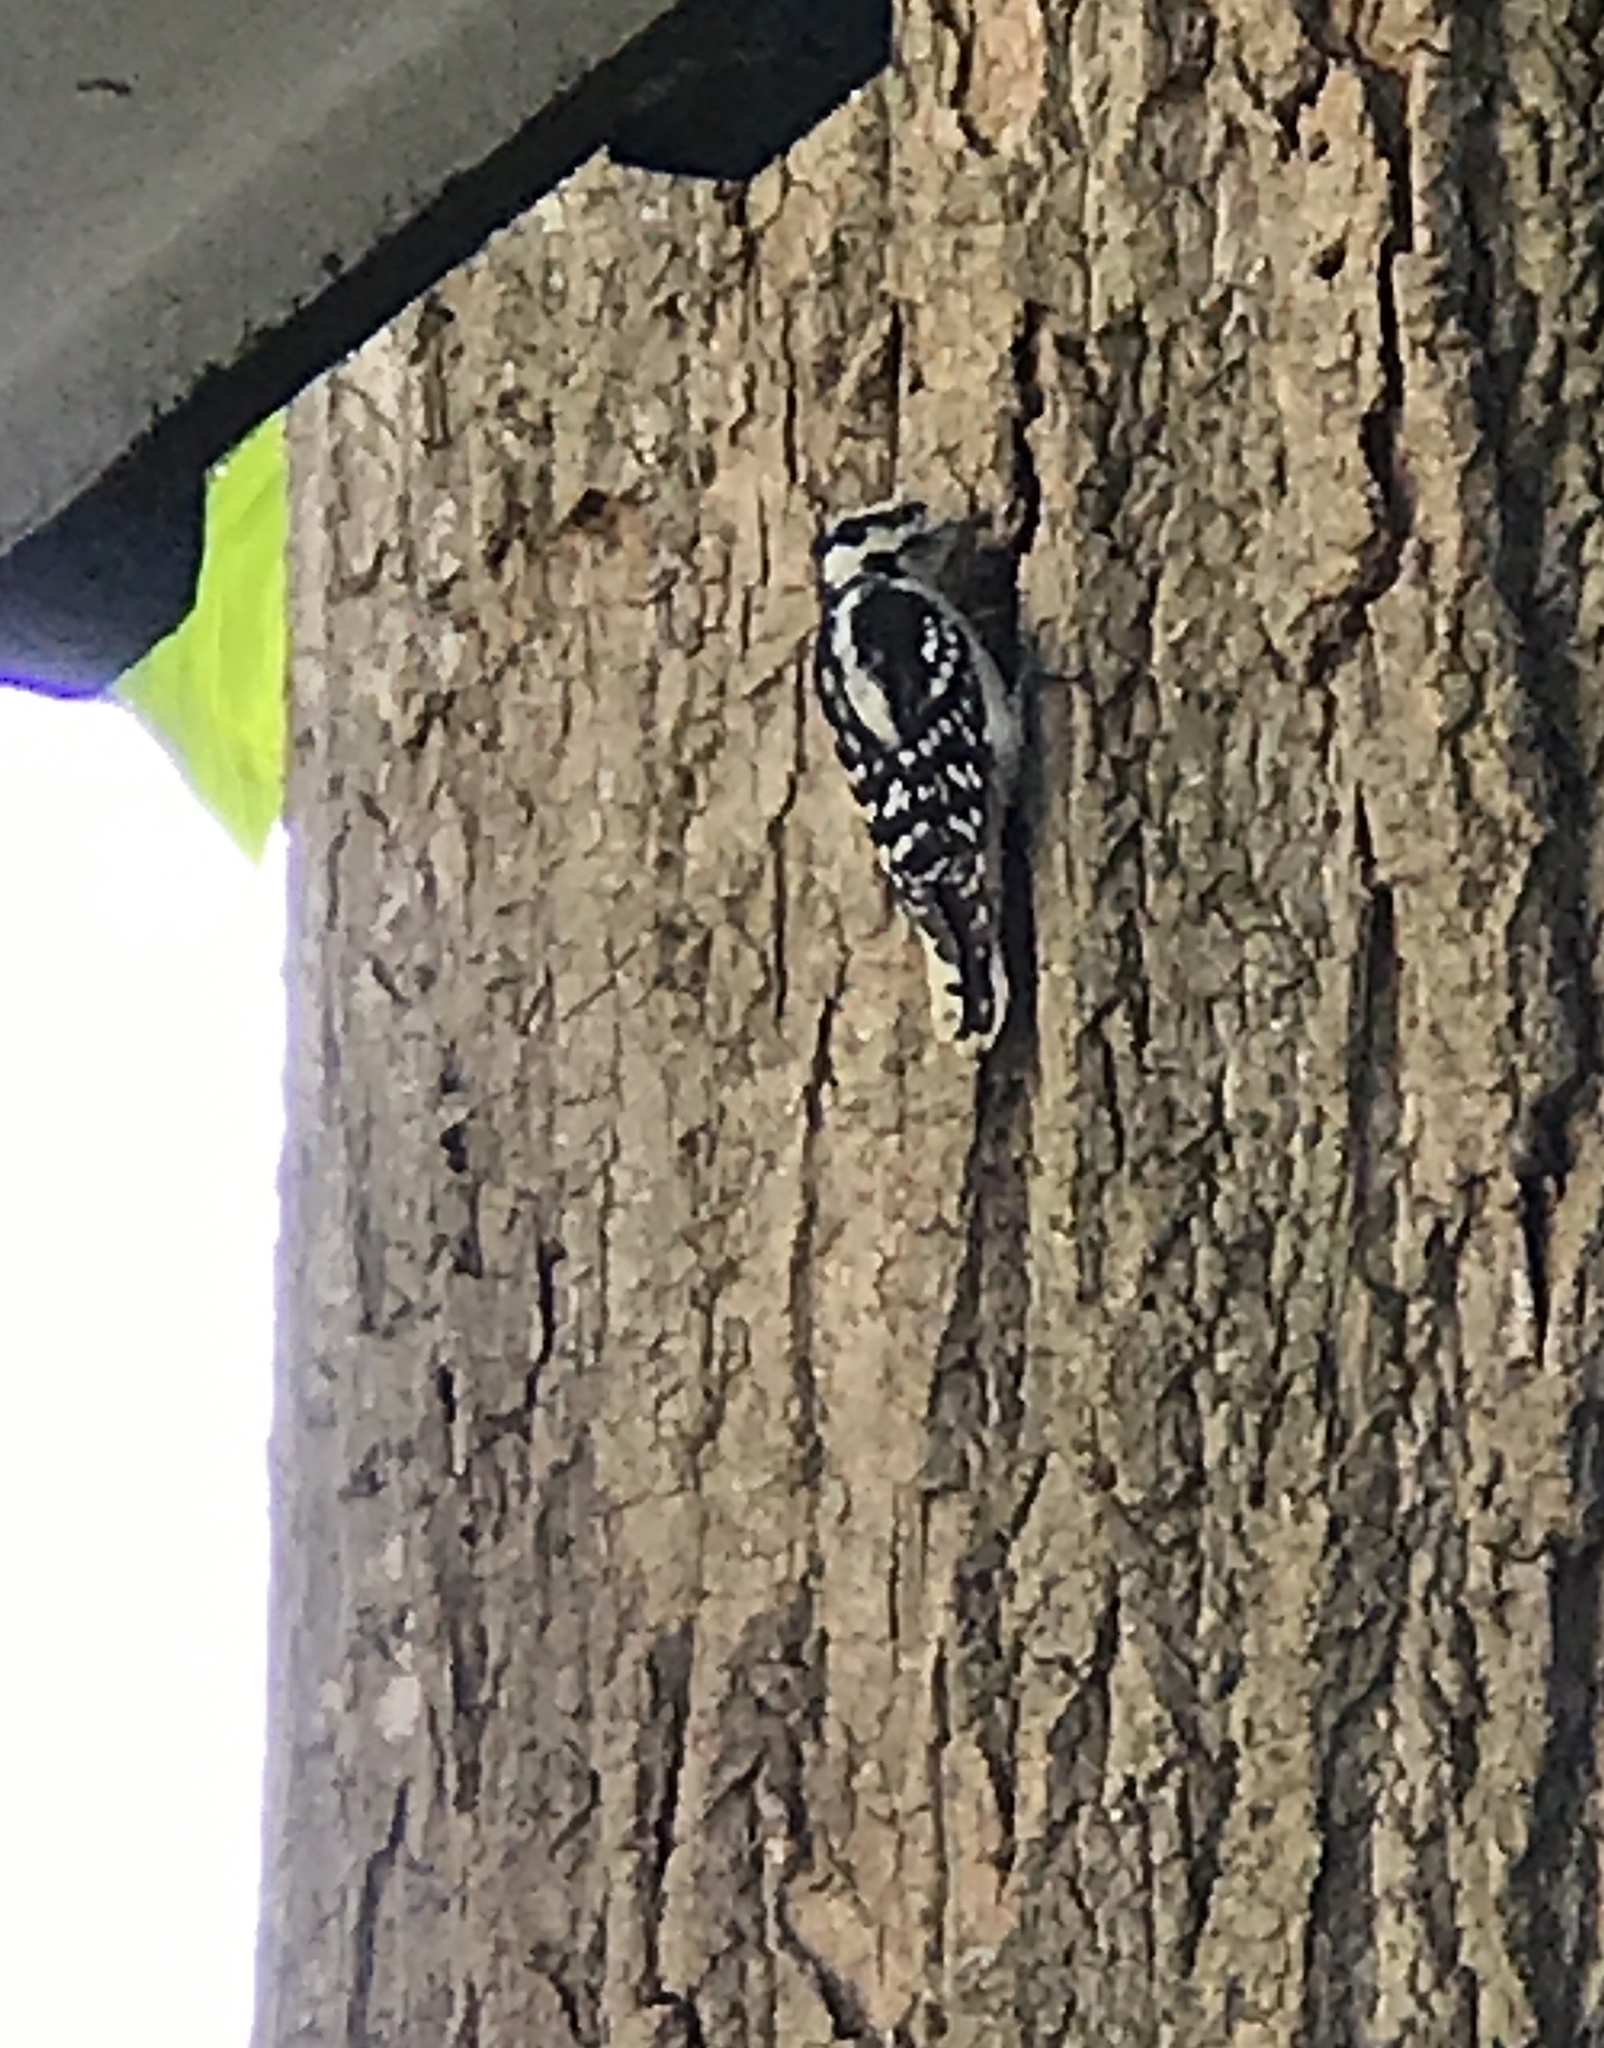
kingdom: Animalia
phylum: Chordata
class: Aves
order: Piciformes
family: Picidae
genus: Dryobates
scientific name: Dryobates pubescens
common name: Downy woodpecker
